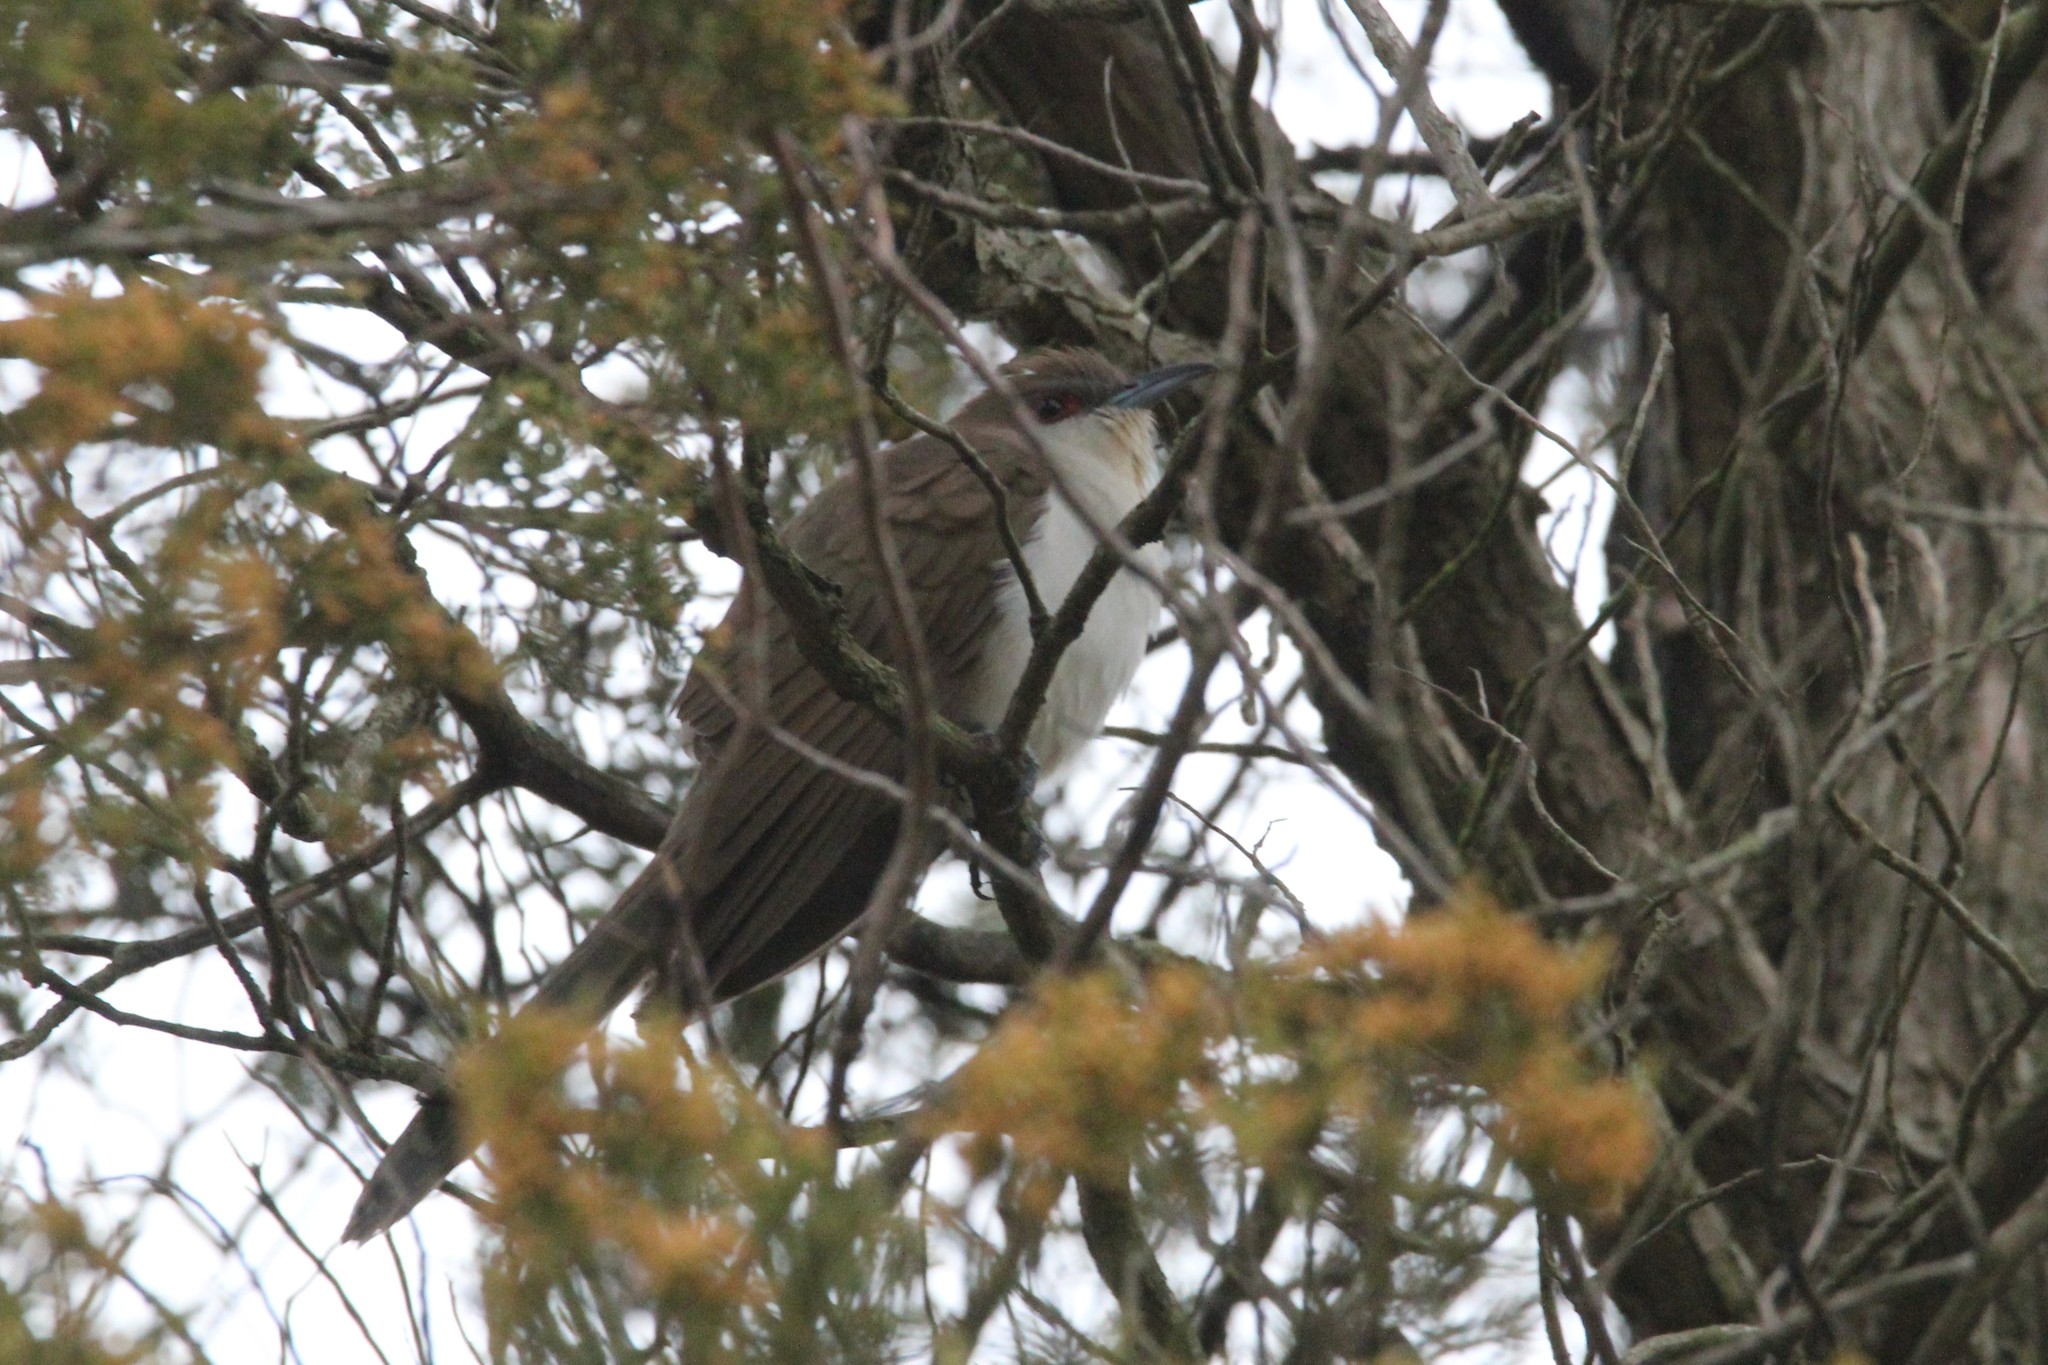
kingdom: Animalia
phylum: Chordata
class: Aves
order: Cuculiformes
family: Cuculidae
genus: Coccyzus
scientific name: Coccyzus erythropthalmus
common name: Black-billed cuckoo
